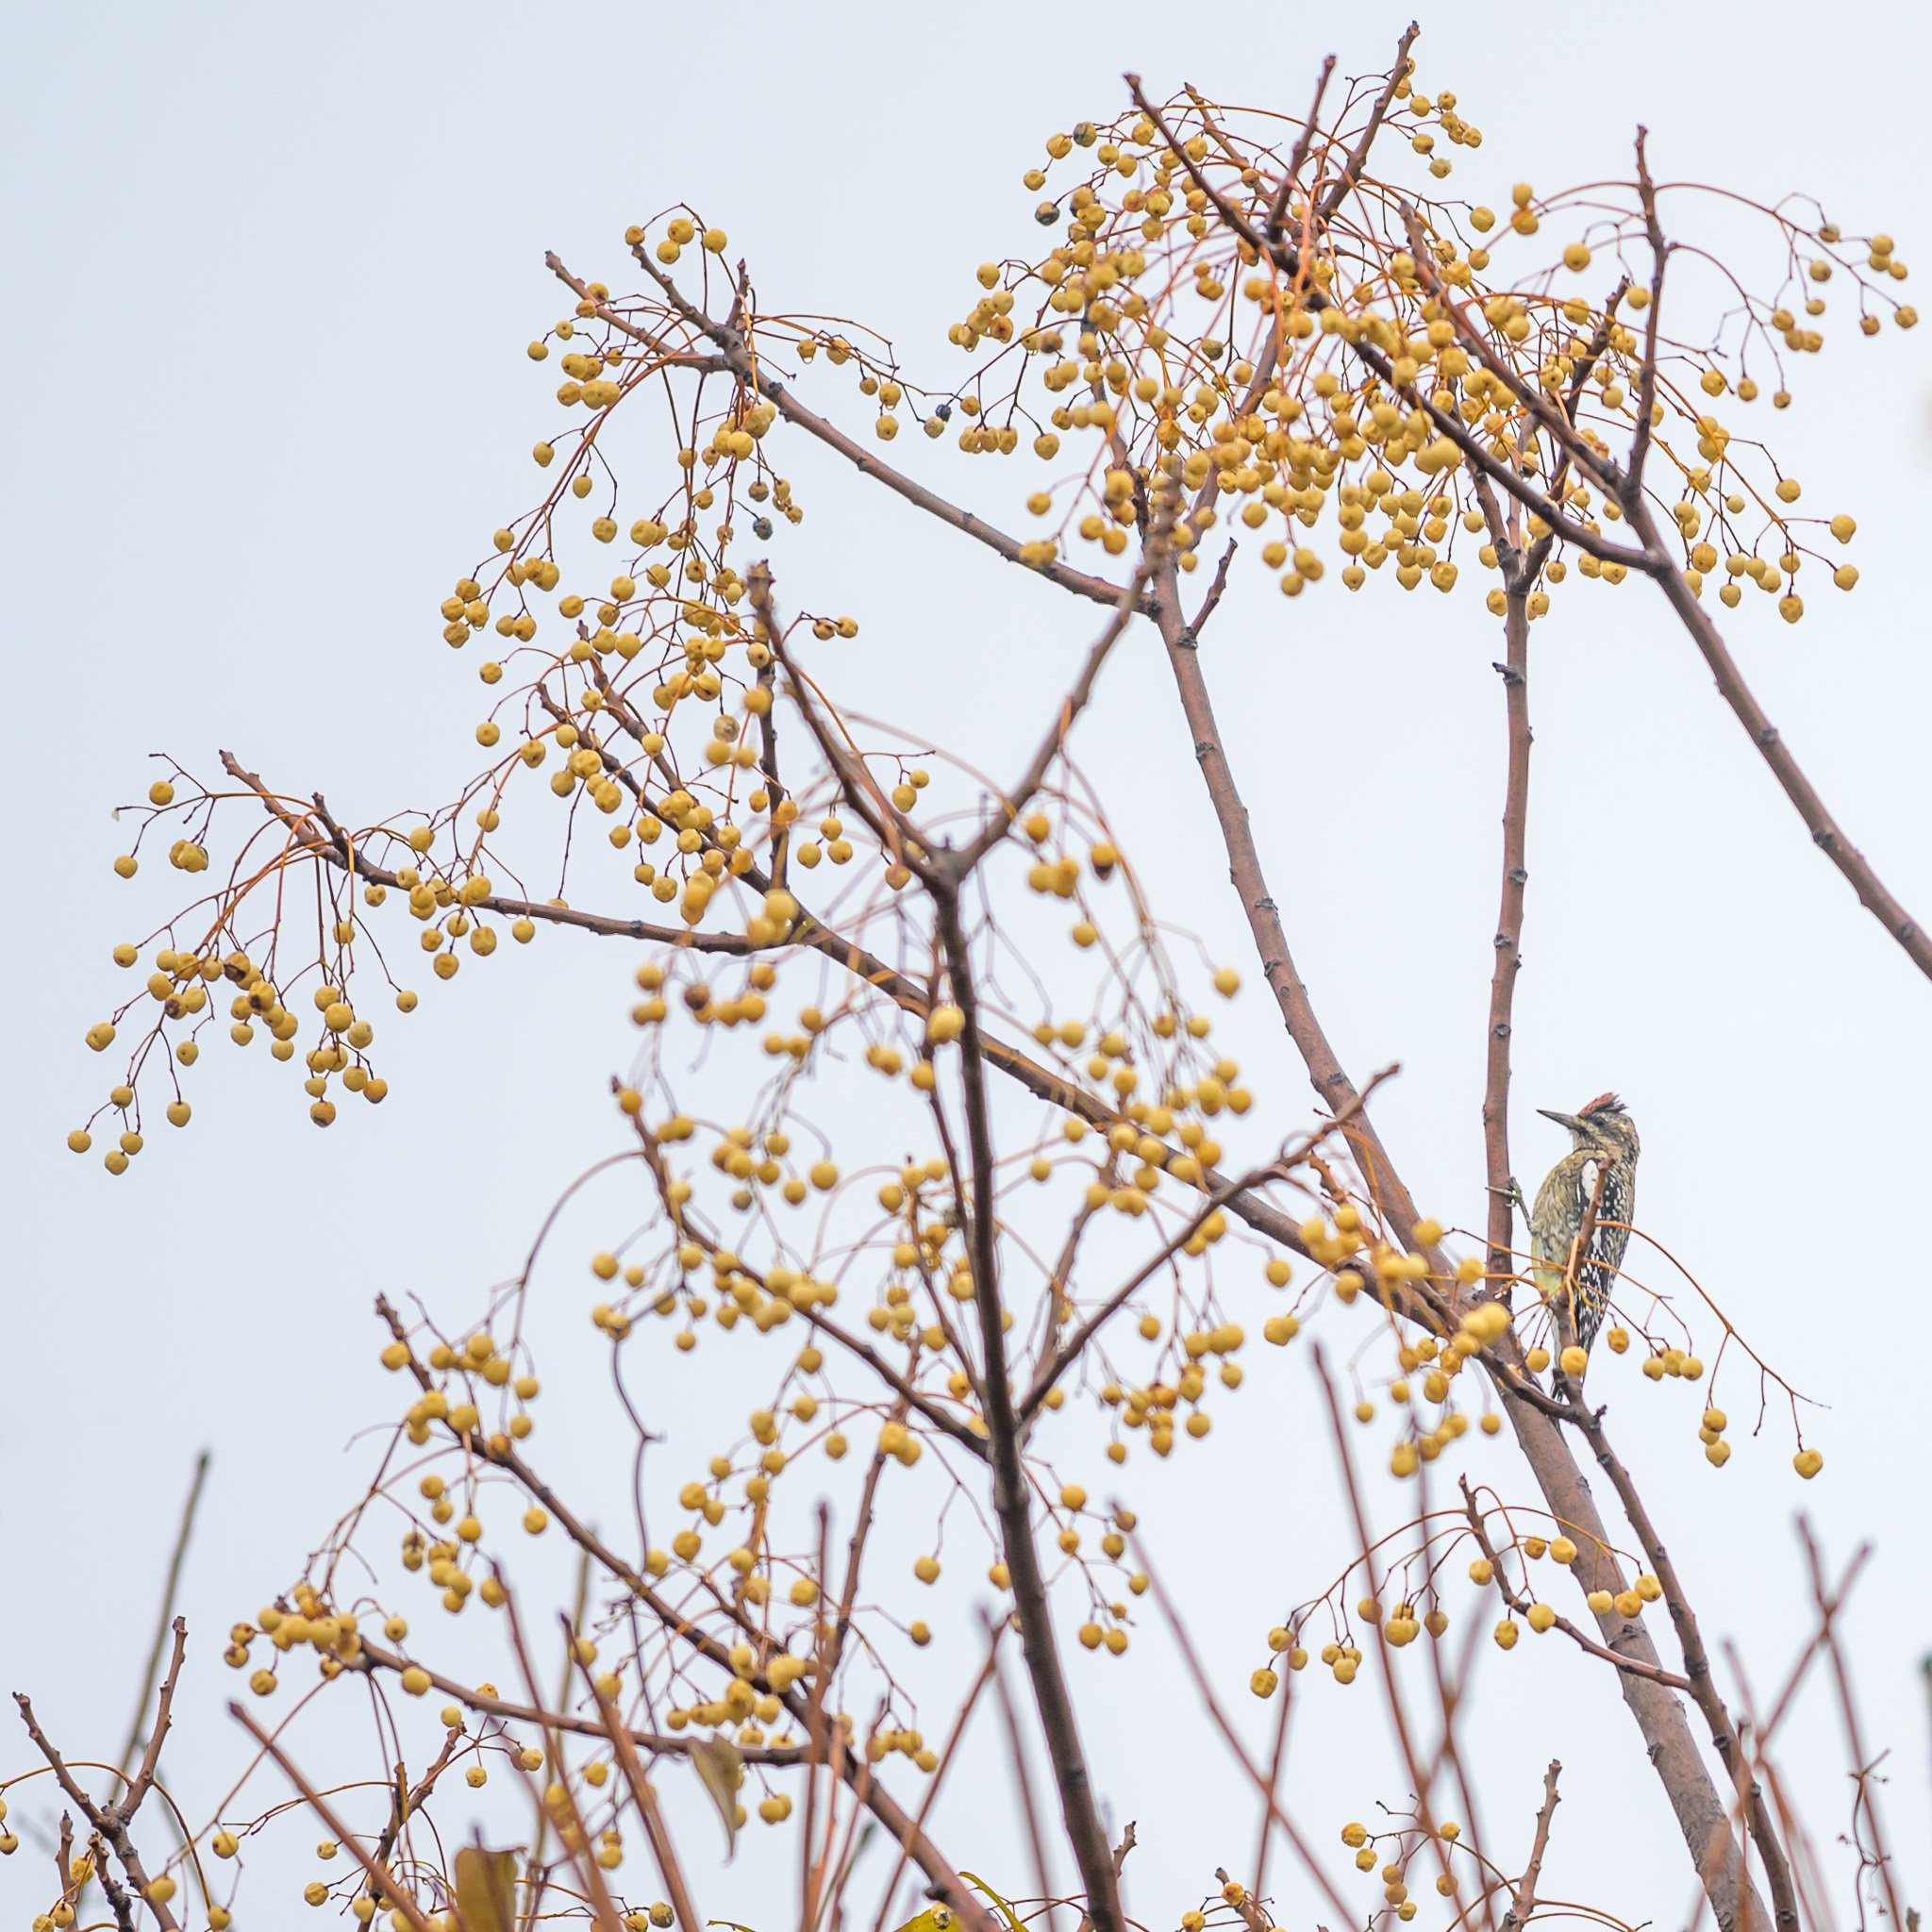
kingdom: Animalia
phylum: Chordata
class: Aves
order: Piciformes
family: Picidae
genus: Sphyrapicus
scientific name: Sphyrapicus varius
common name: Yellow-bellied sapsucker
